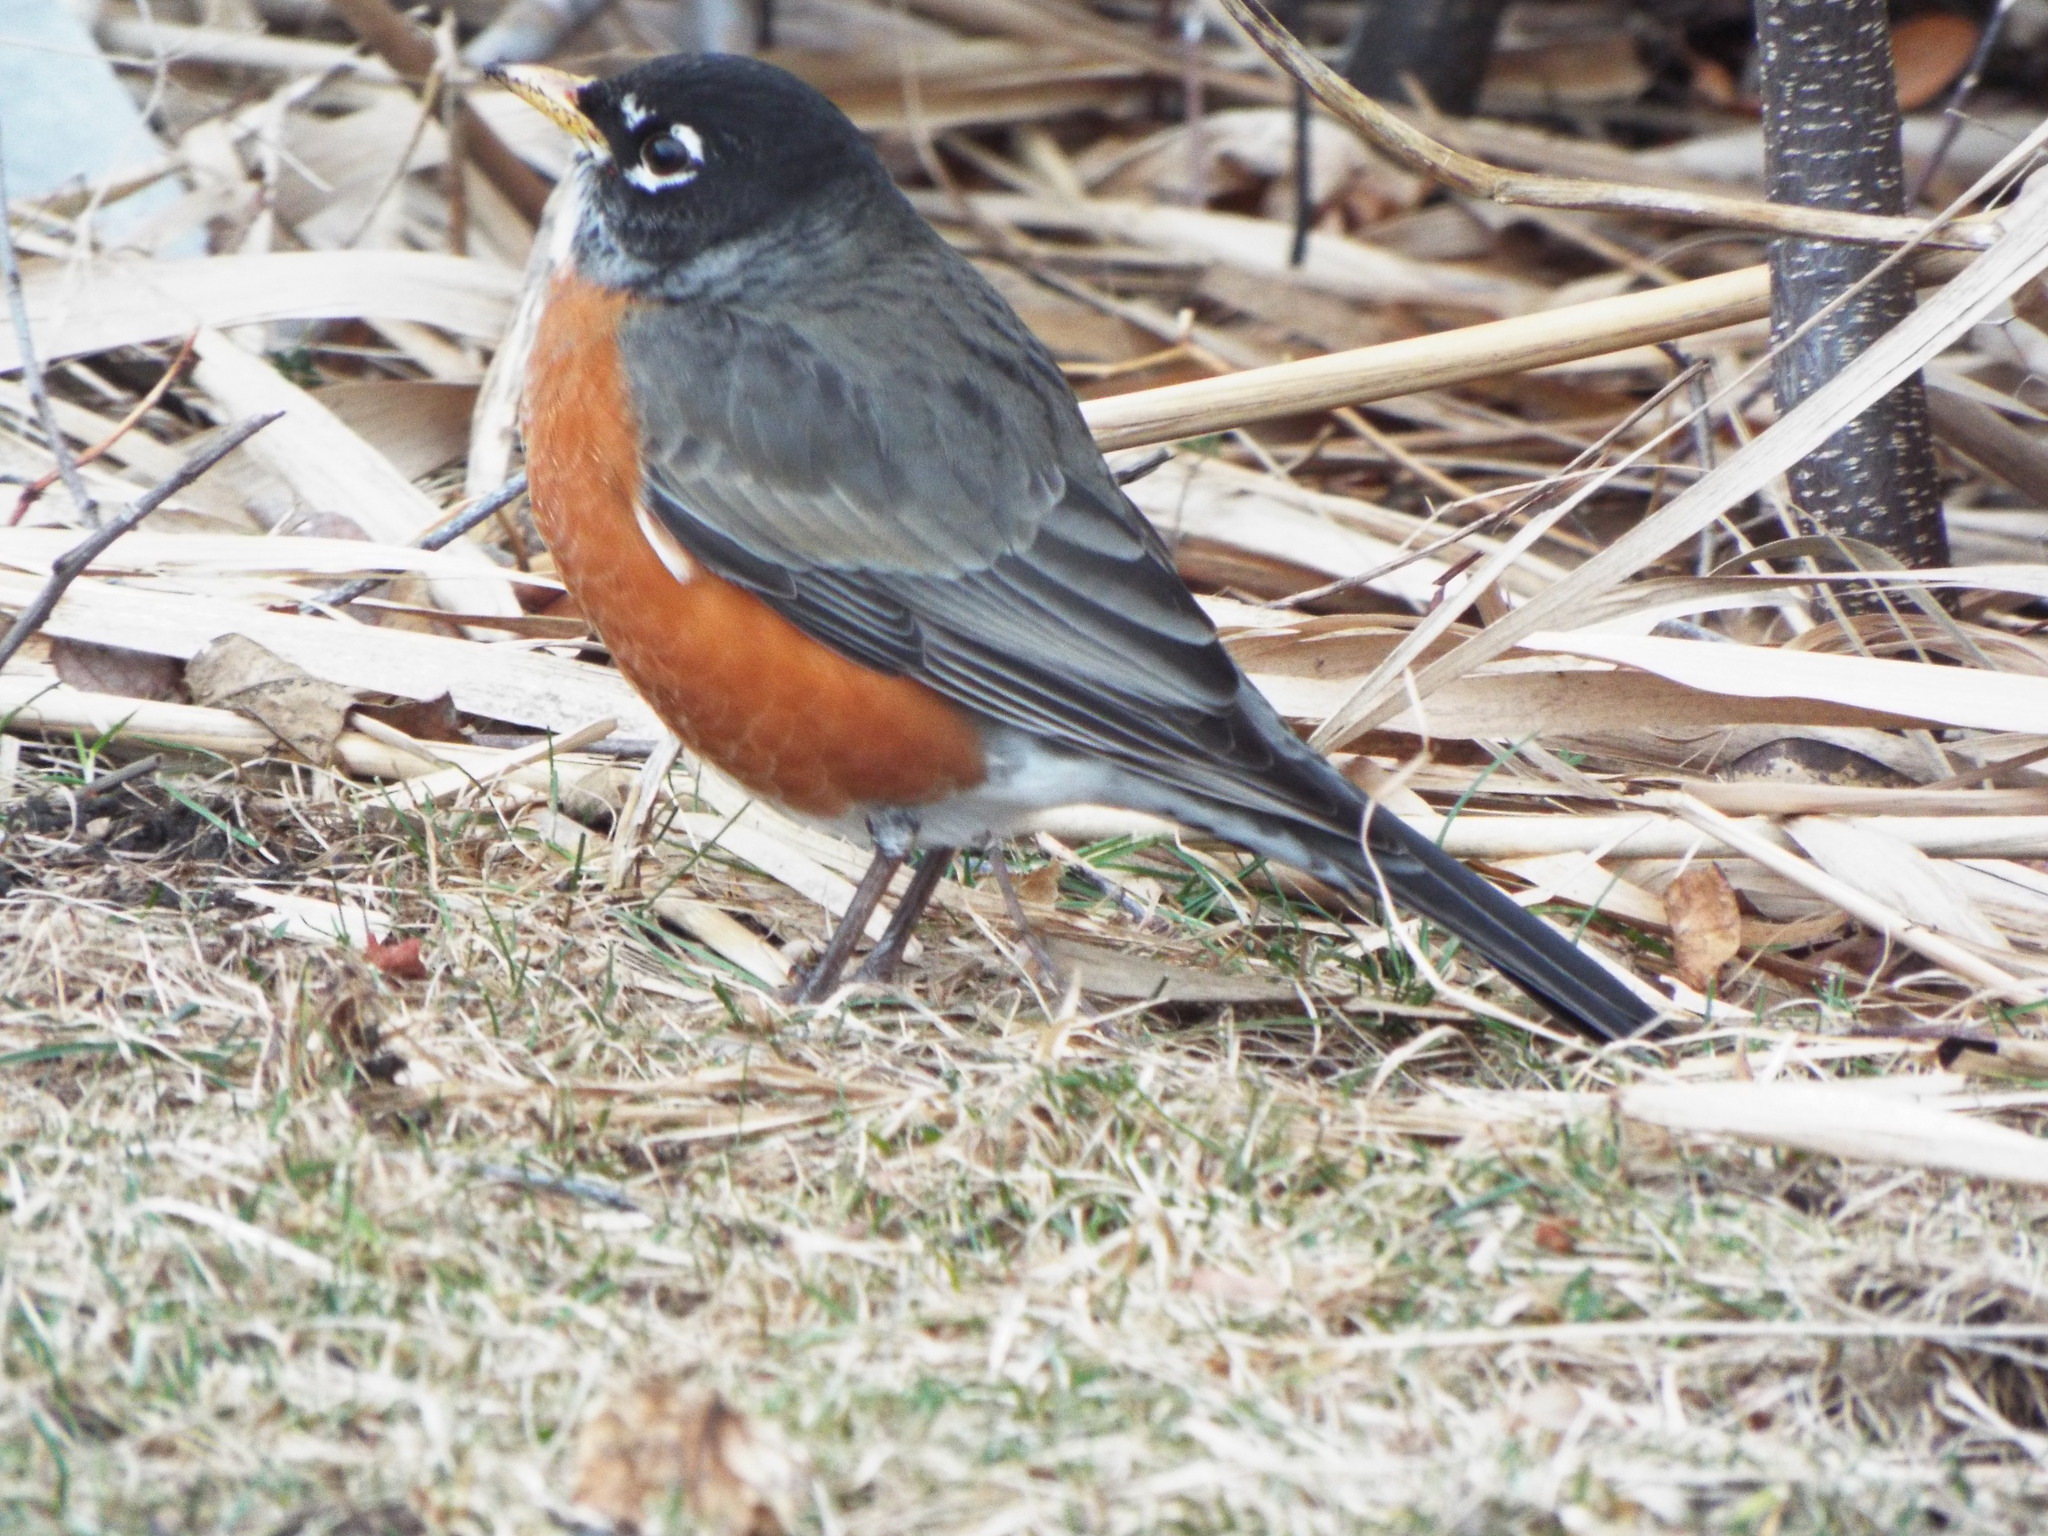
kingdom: Animalia
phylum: Chordata
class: Aves
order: Passeriformes
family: Turdidae
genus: Turdus
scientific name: Turdus migratorius
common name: American robin
